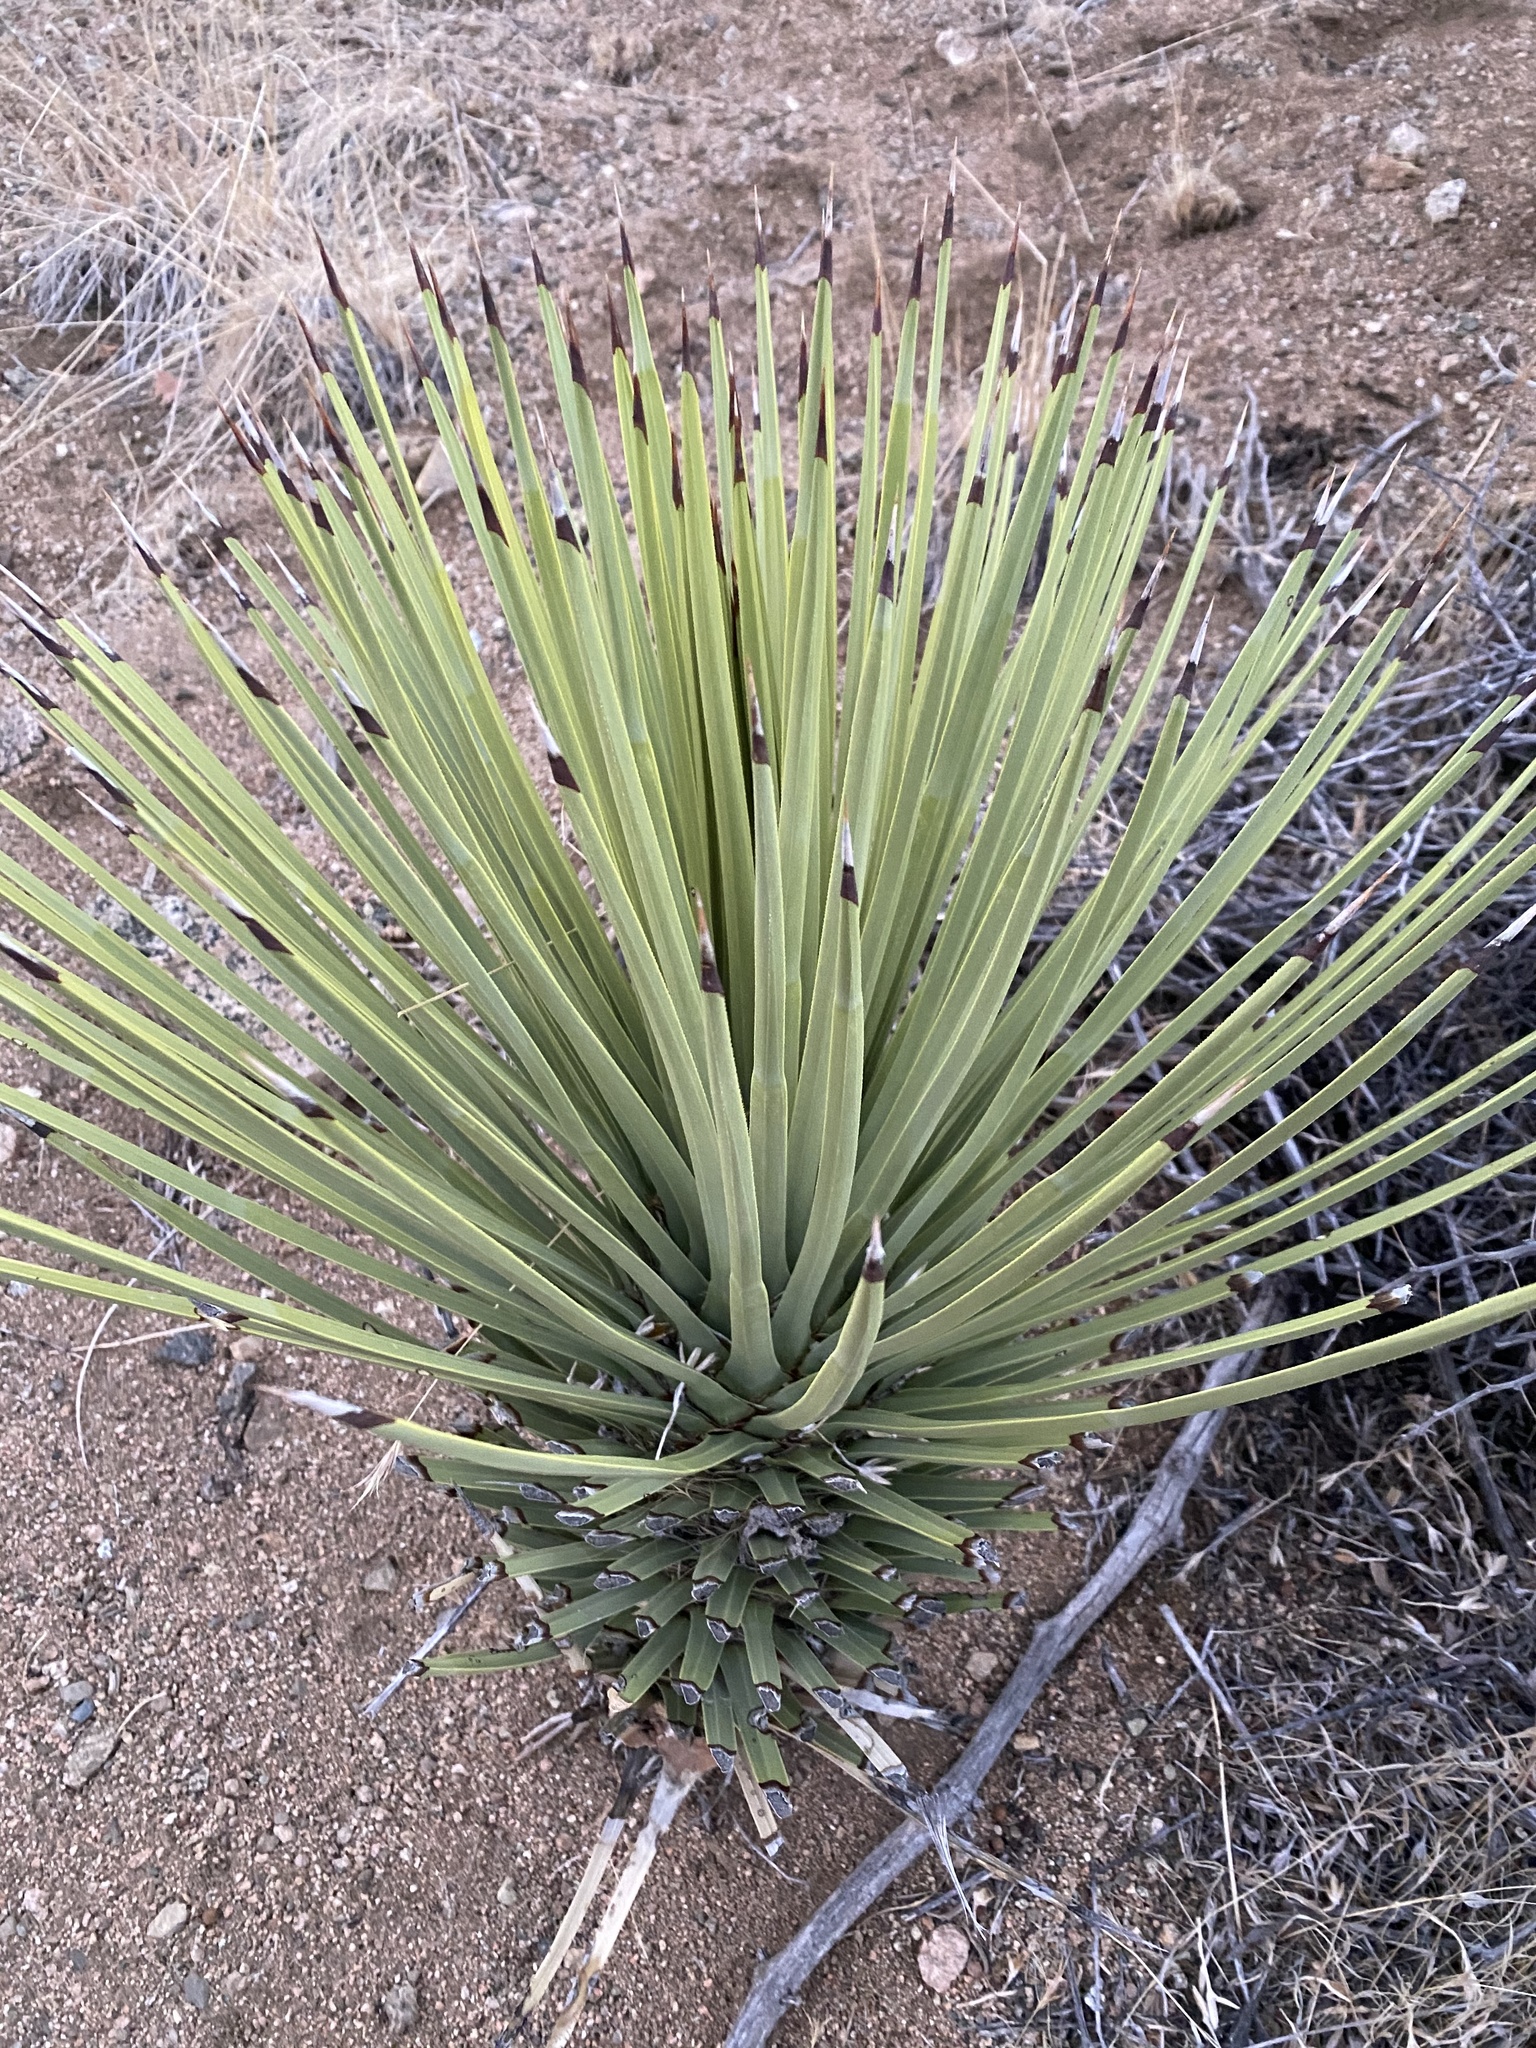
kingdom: Plantae
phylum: Tracheophyta
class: Liliopsida
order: Asparagales
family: Asparagaceae
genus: Yucca
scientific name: Yucca brevifolia
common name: Joshua tree
